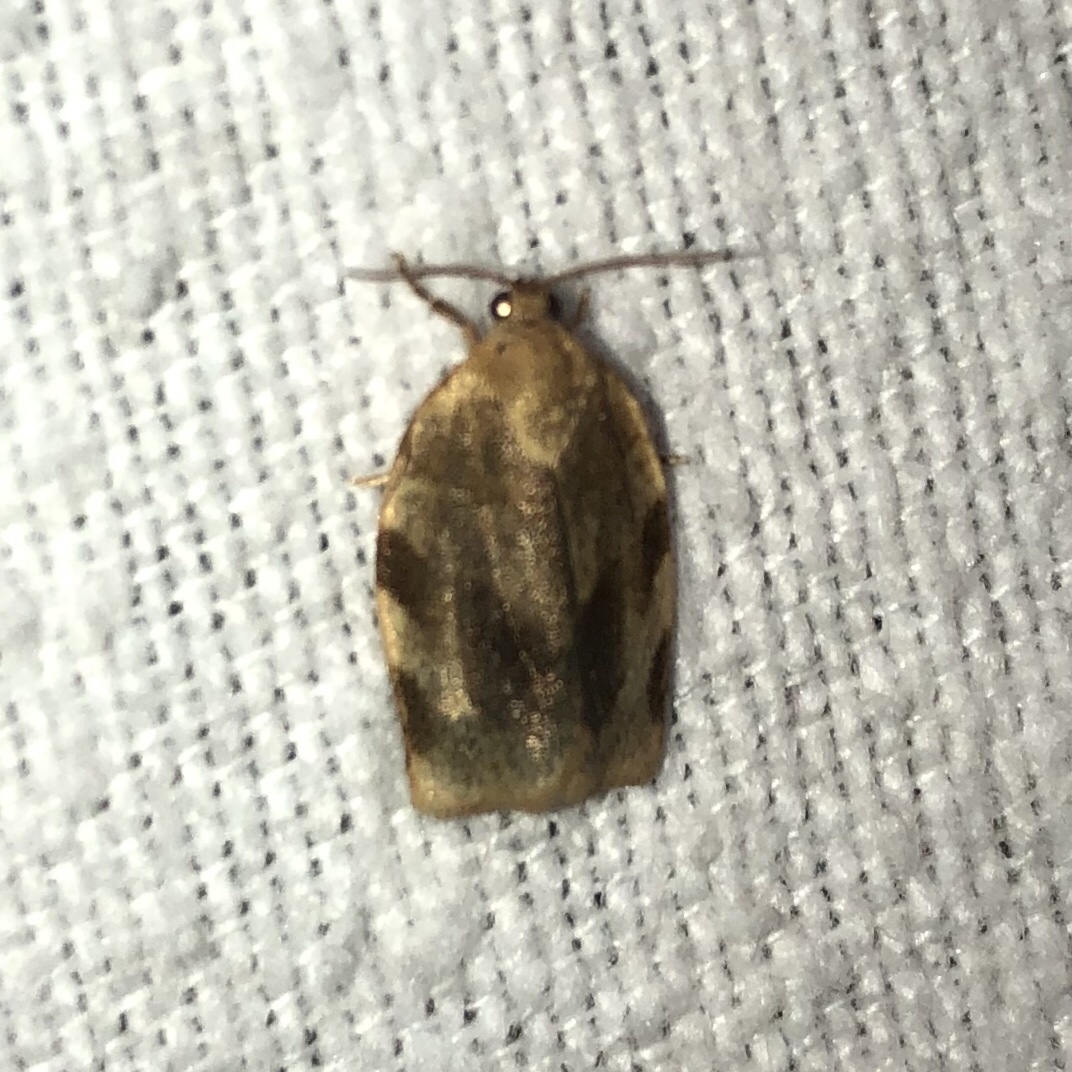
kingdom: Animalia
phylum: Arthropoda
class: Insecta
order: Lepidoptera
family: Tortricidae
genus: Choristoneura
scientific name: Choristoneura fractivittana
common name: Broken-banded leafroller moth
